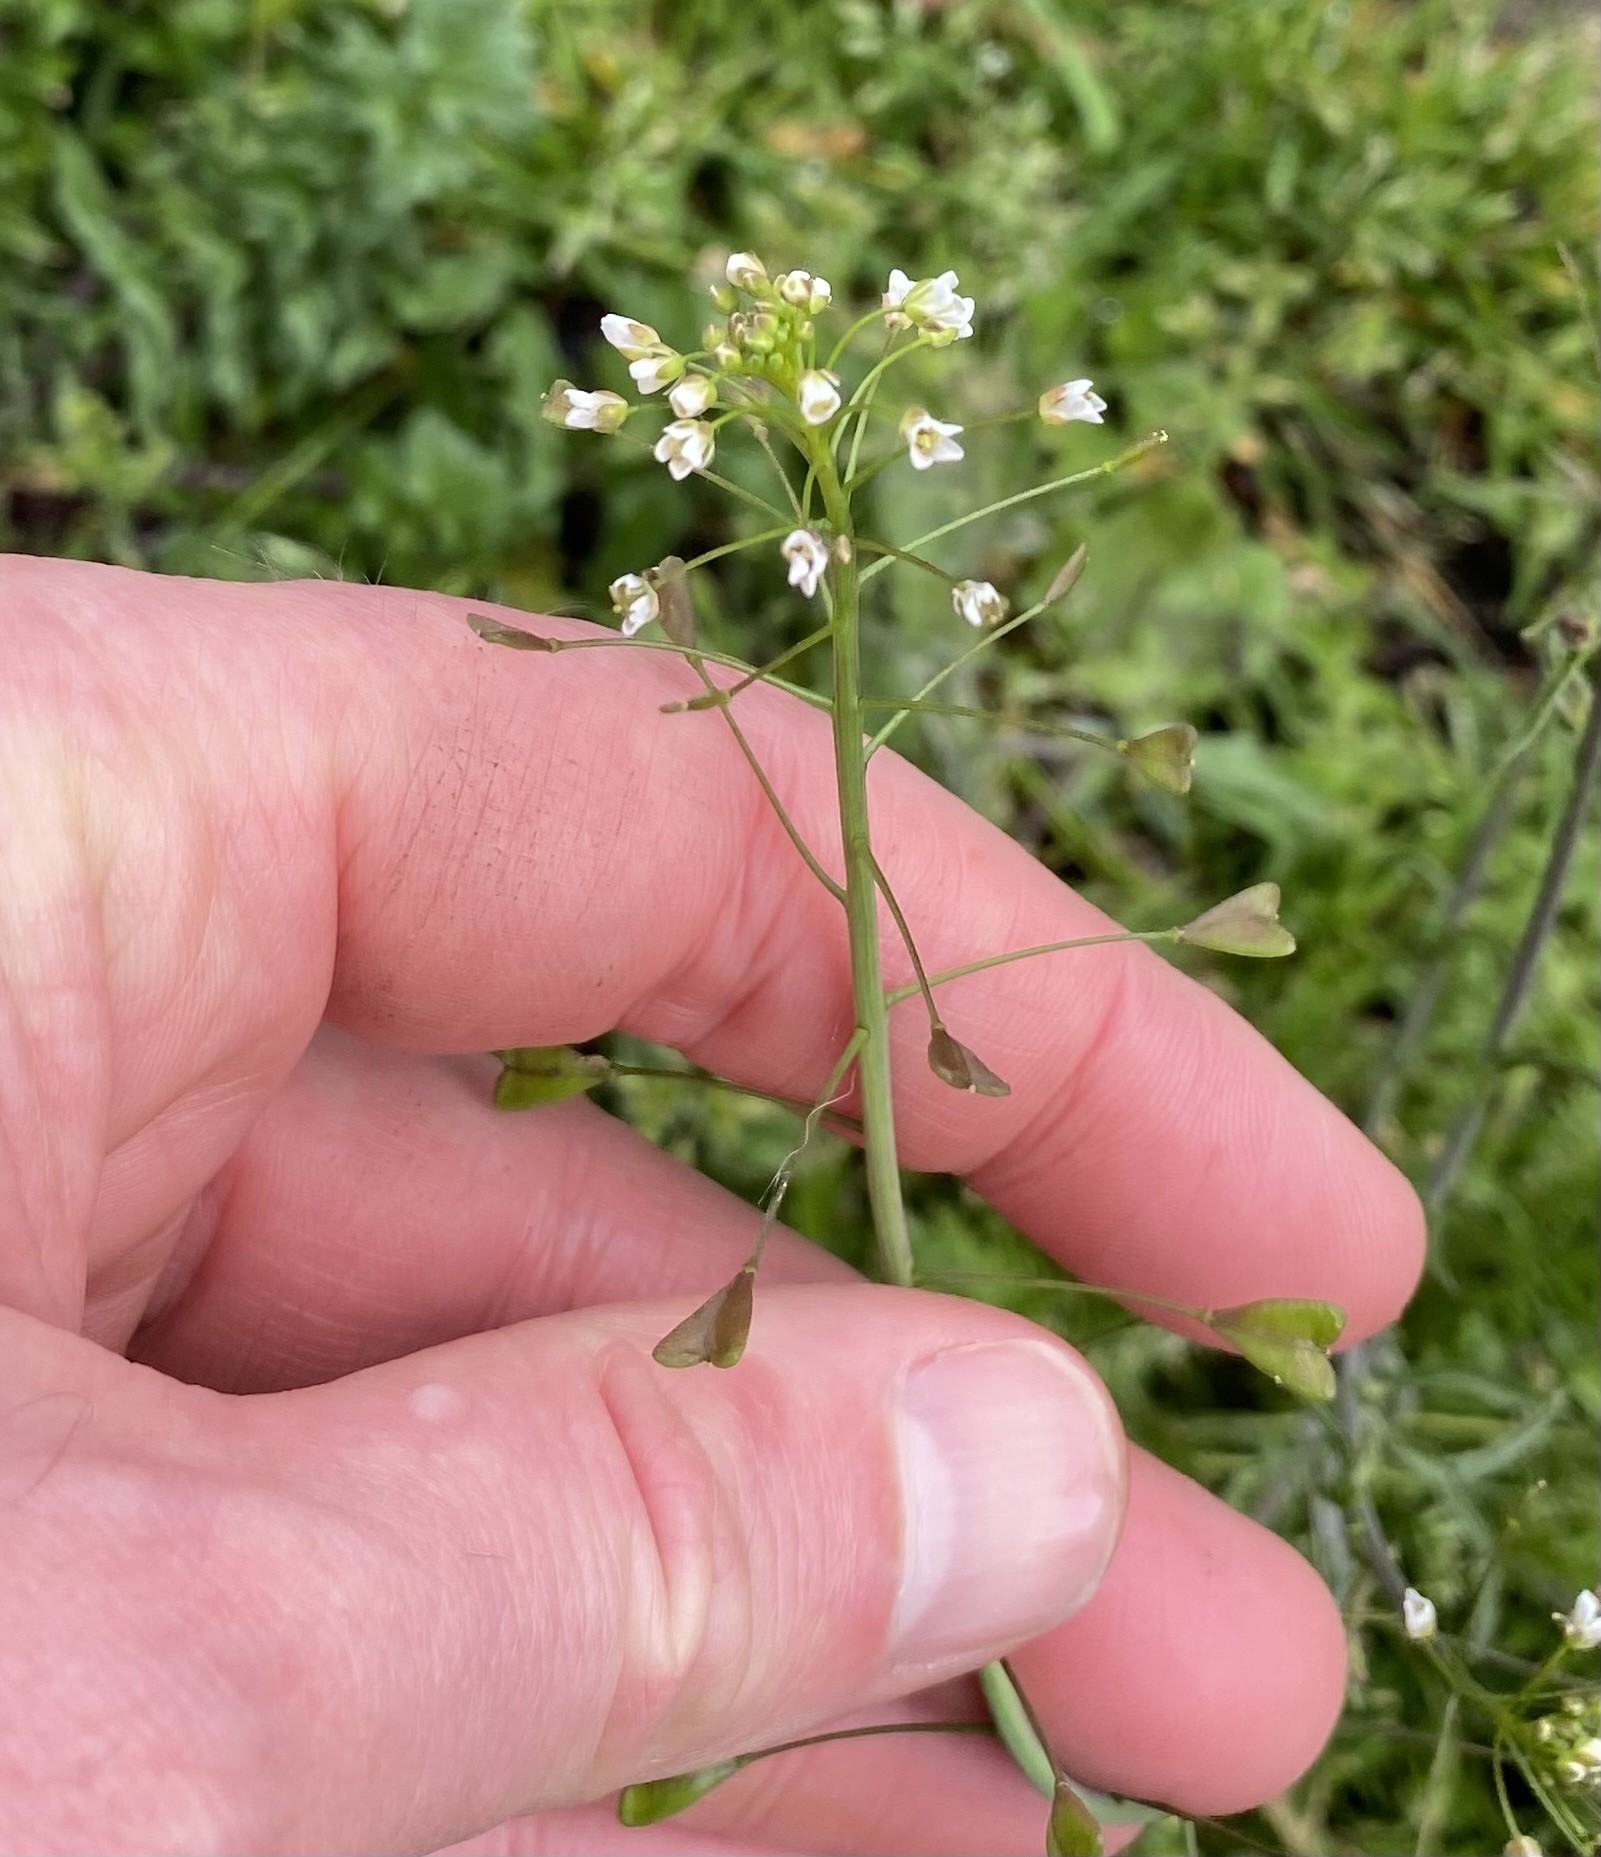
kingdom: Plantae
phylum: Tracheophyta
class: Magnoliopsida
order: Brassicales
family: Brassicaceae
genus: Capsella
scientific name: Capsella bursa-pastoris
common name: Shepherd's purse
